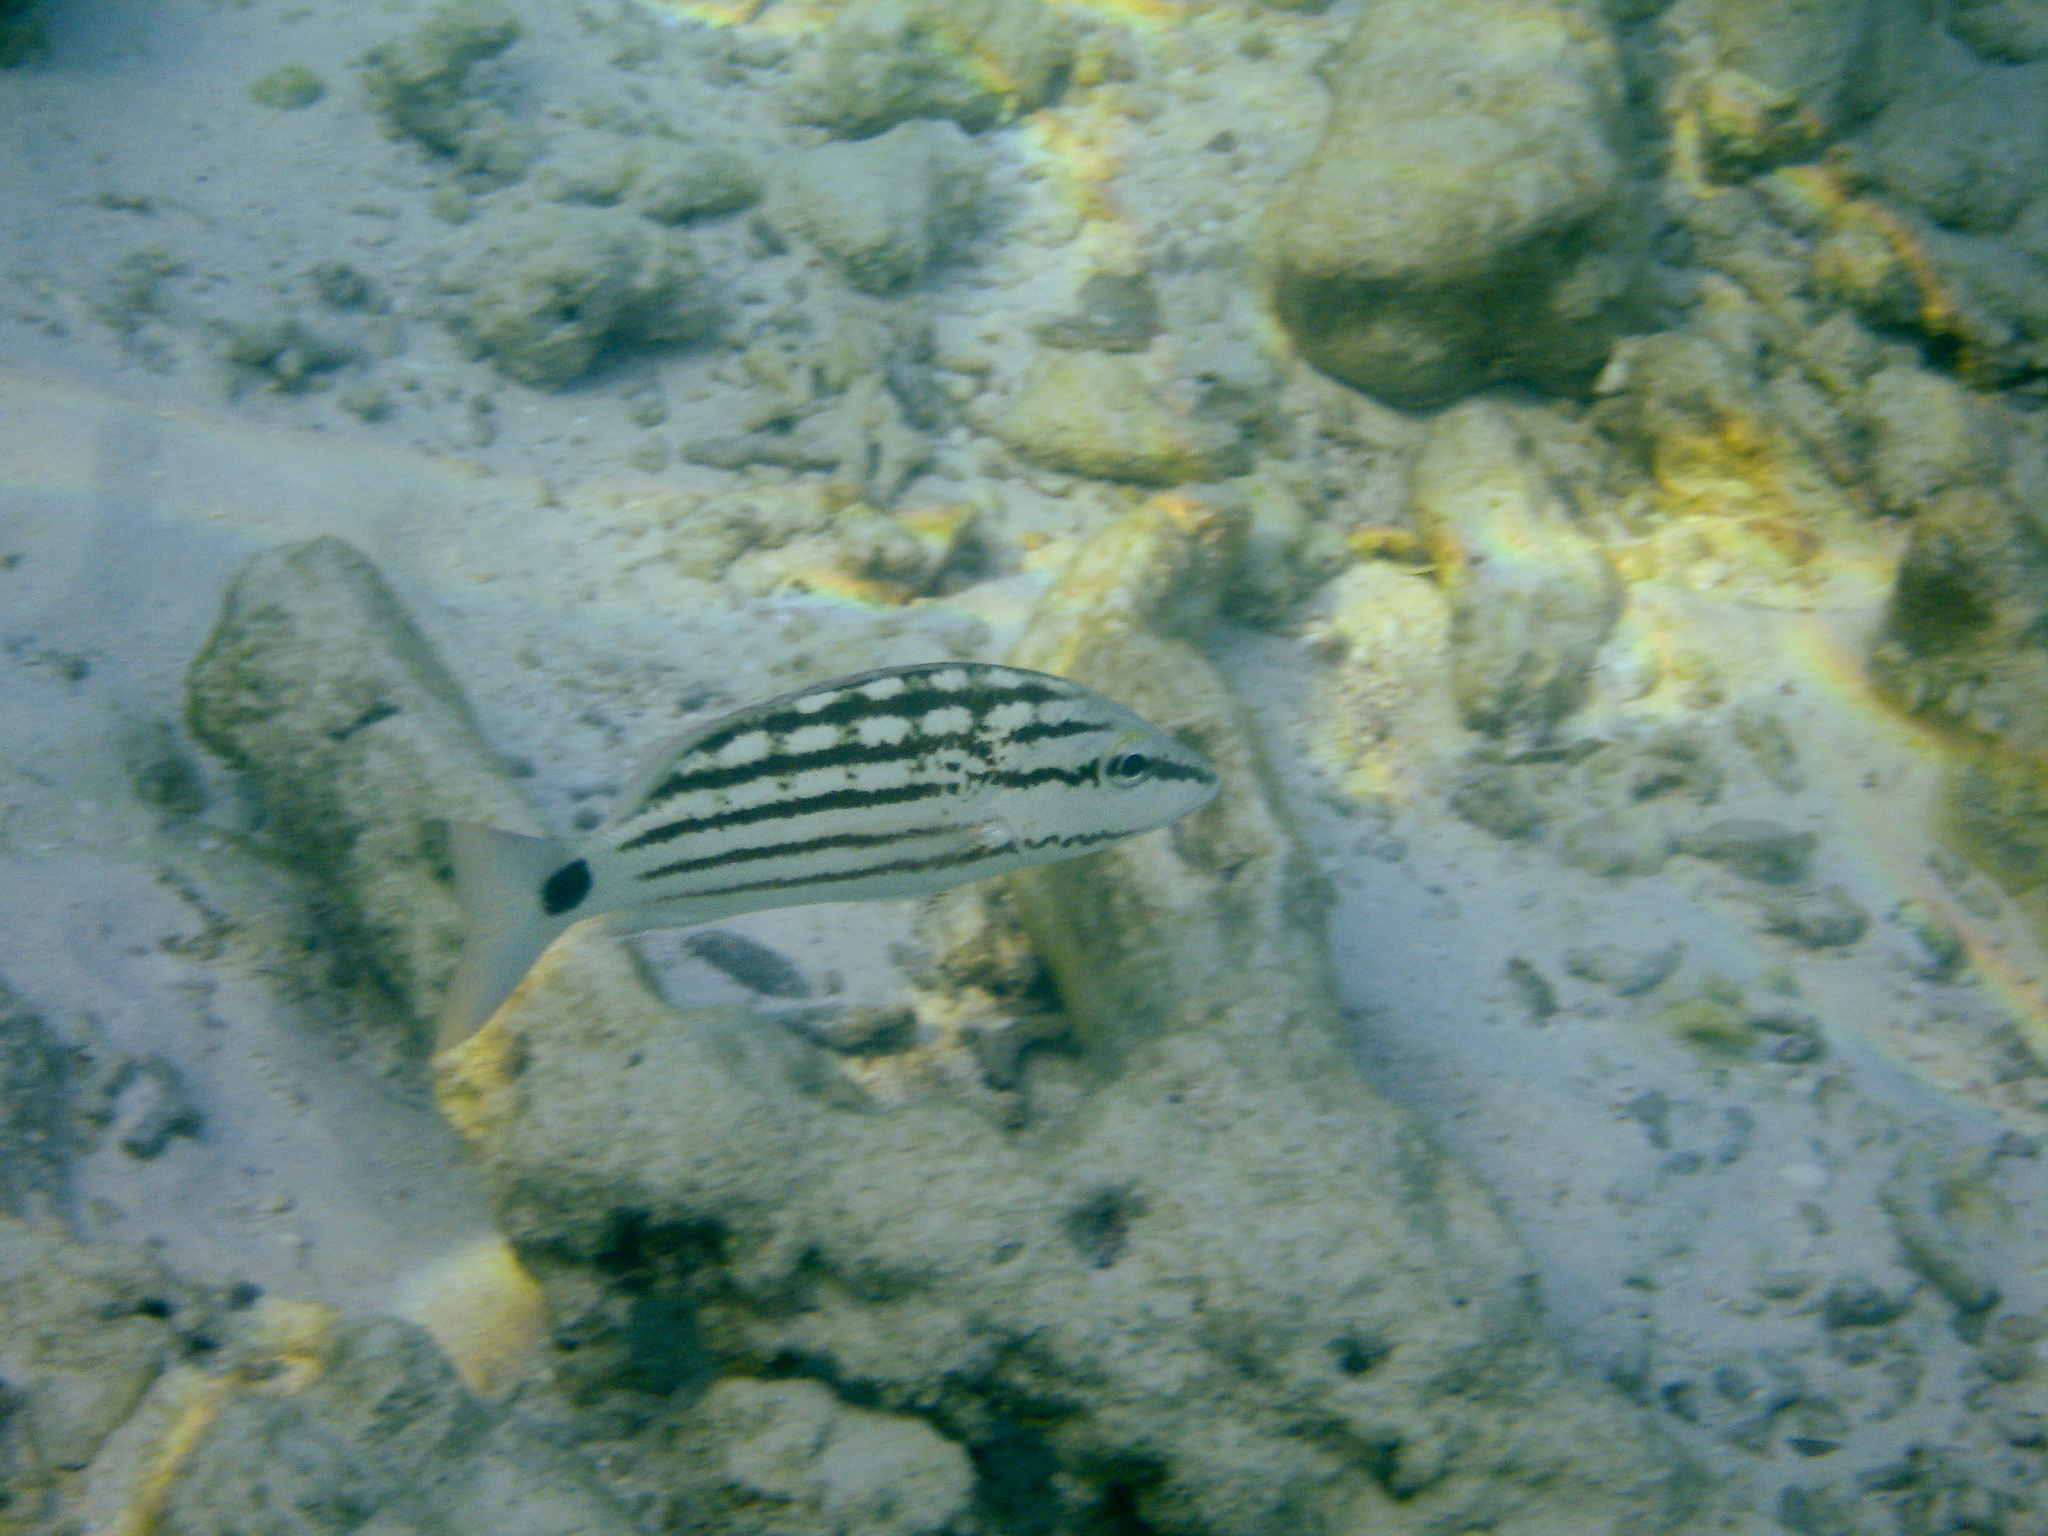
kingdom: Animalia
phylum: Chordata
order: Perciformes
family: Lutjanidae
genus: Lutjanus
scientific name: Lutjanus decussatus
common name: Checkered snapper
